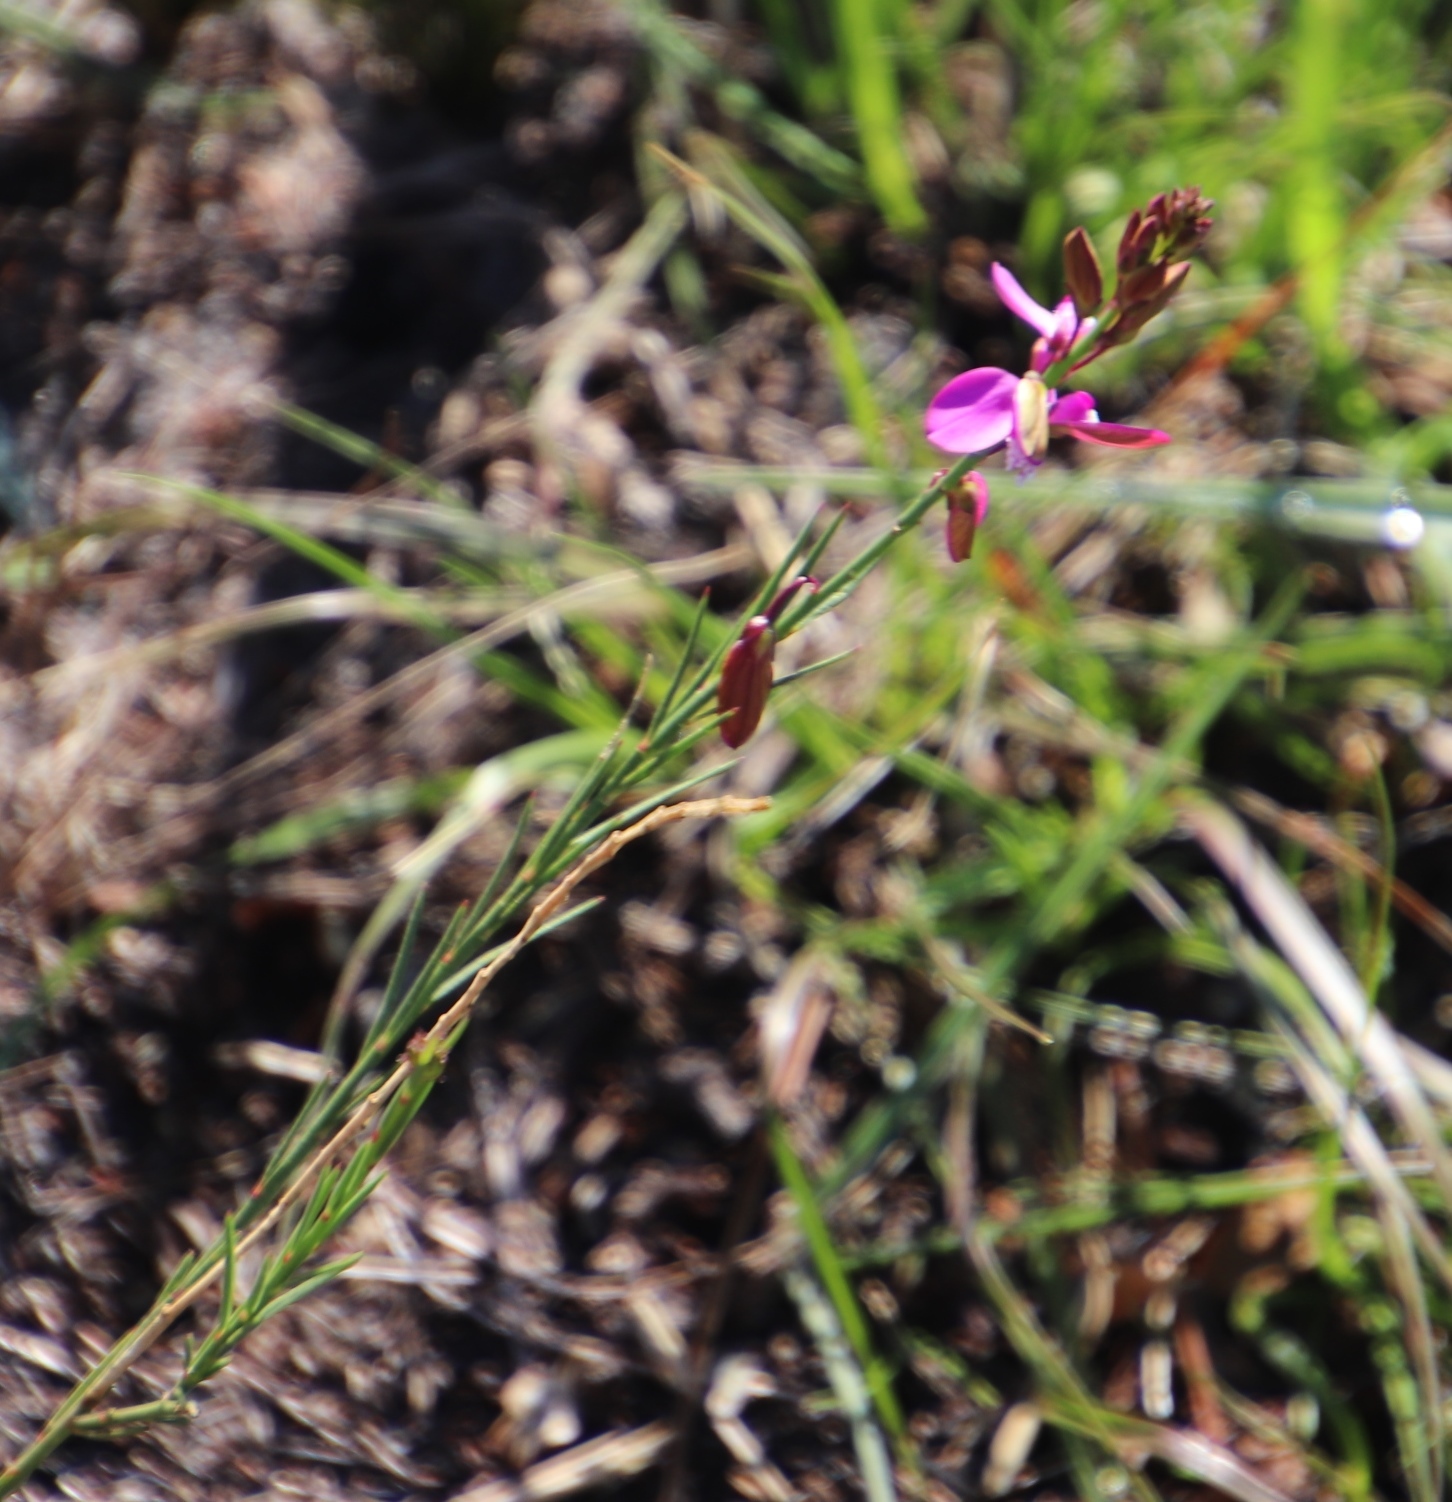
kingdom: Plantae
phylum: Tracheophyta
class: Magnoliopsida
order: Fabales
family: Polygalaceae
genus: Polygala
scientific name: Polygala garcini
